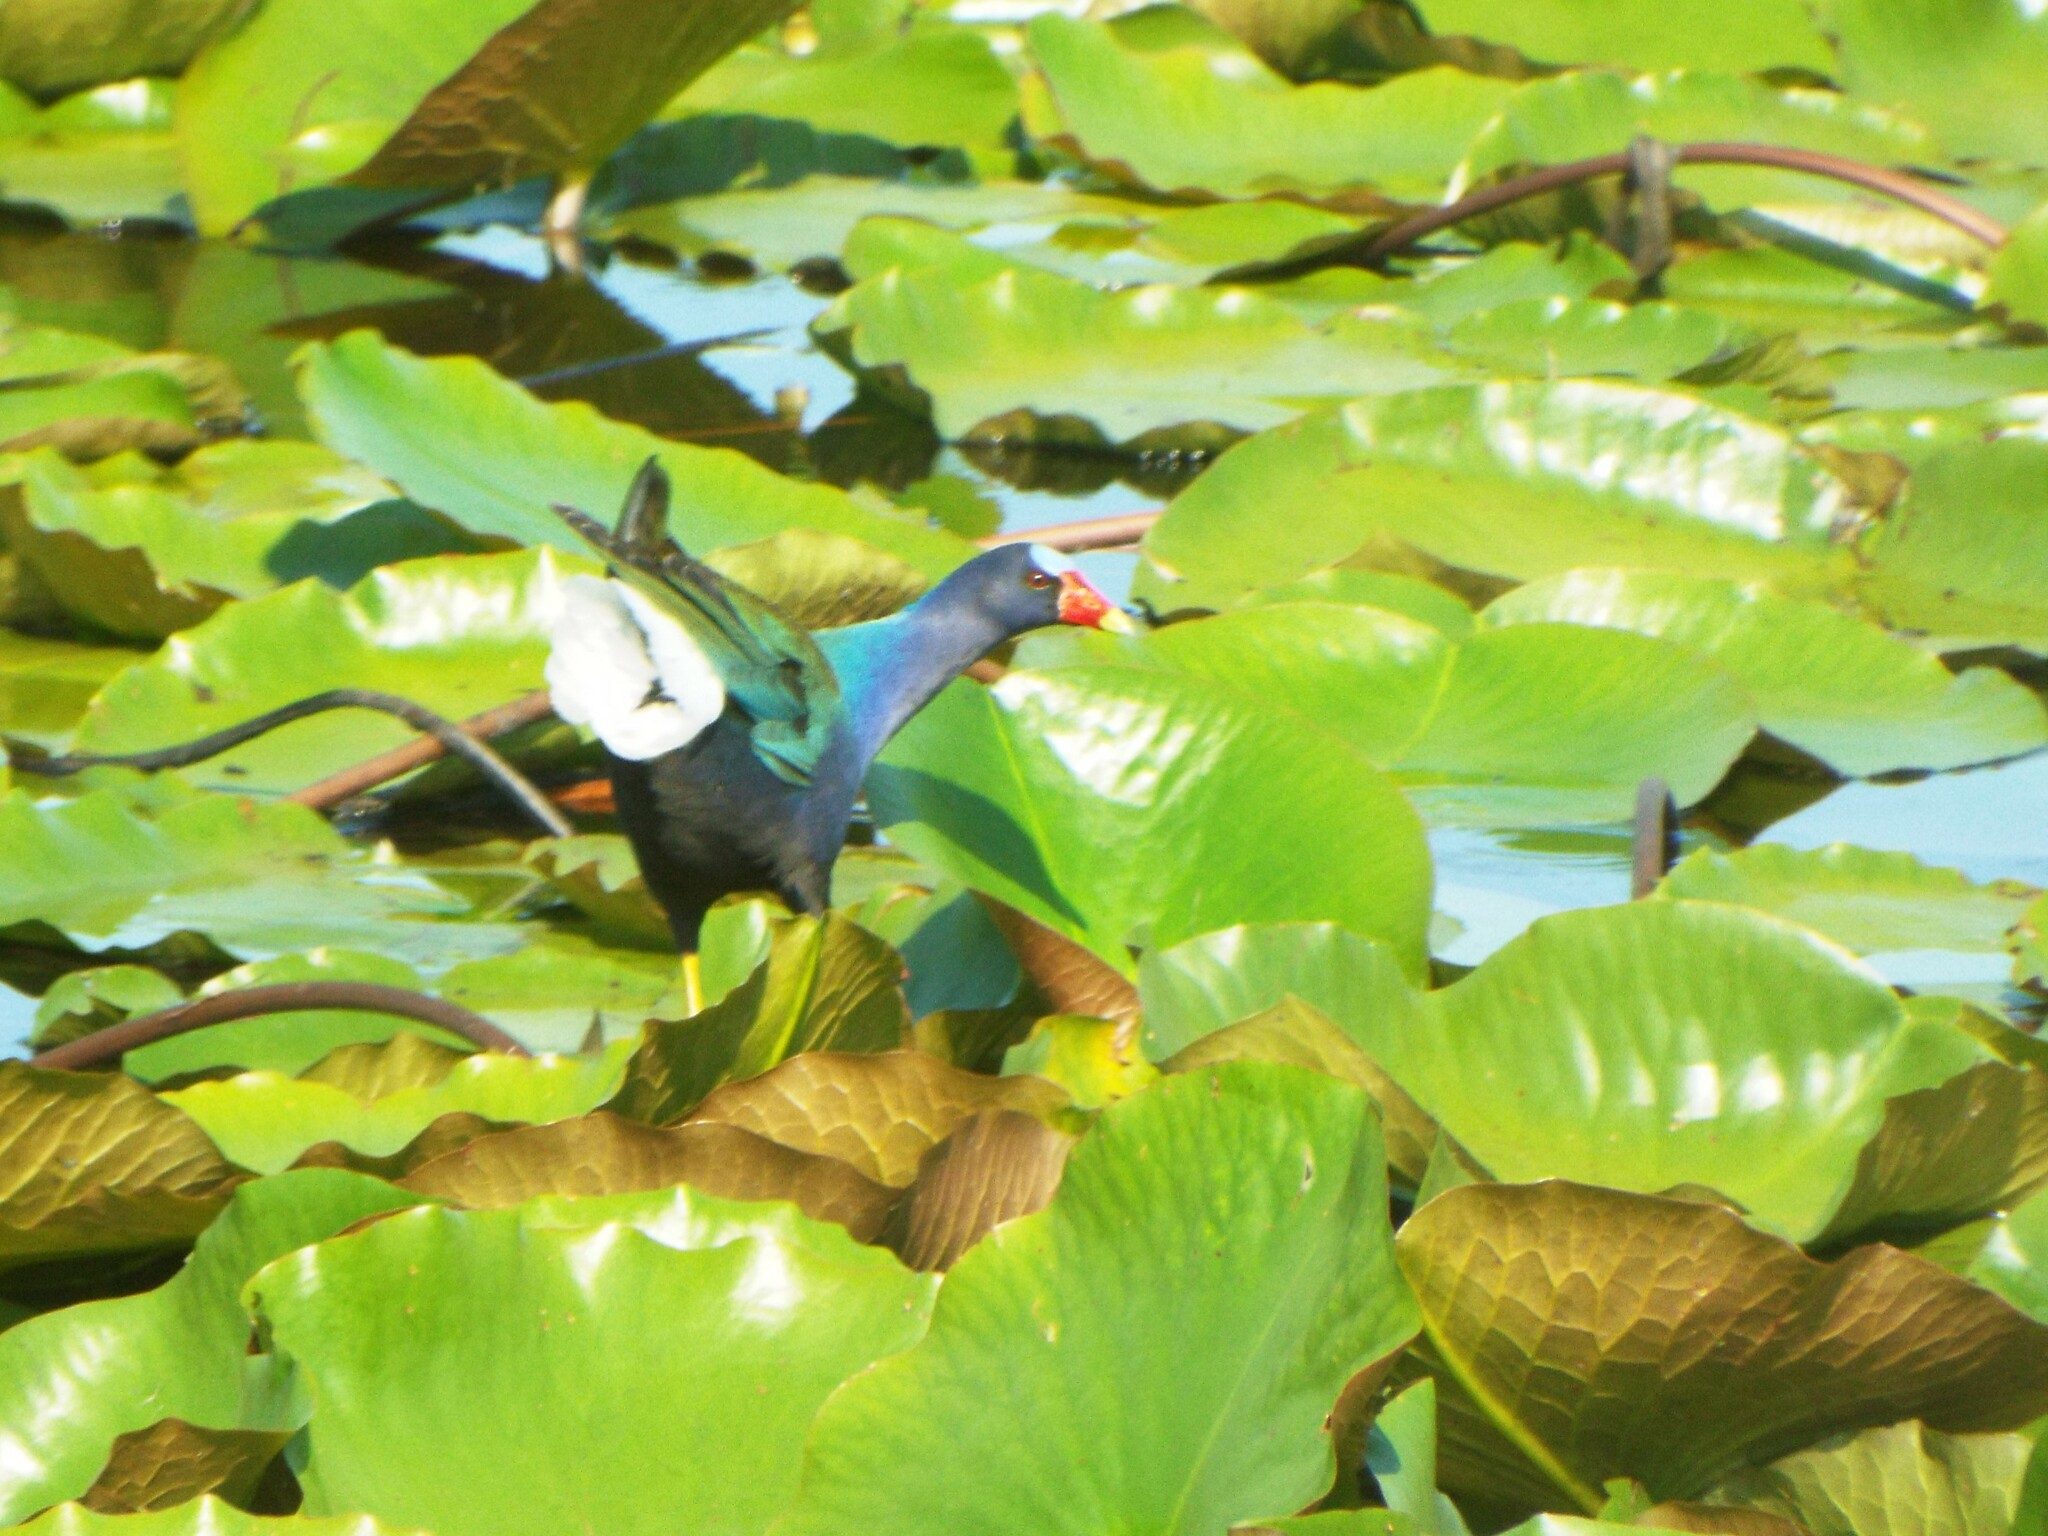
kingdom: Animalia
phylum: Chordata
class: Aves
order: Gruiformes
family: Rallidae
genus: Porphyrio
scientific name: Porphyrio martinica
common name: Purple gallinule
